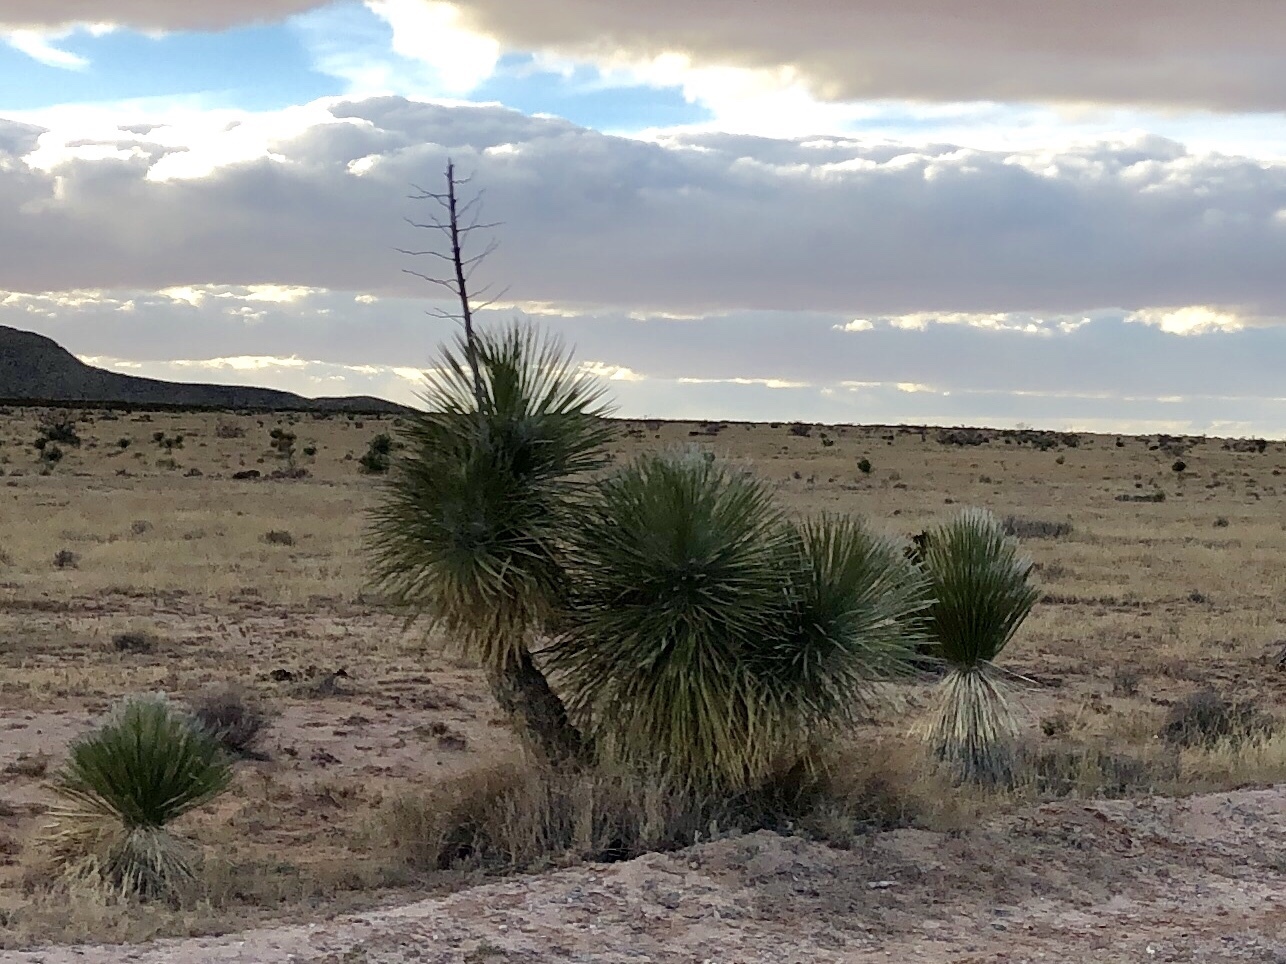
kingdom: Plantae
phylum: Tracheophyta
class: Liliopsida
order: Asparagales
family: Asparagaceae
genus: Yucca
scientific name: Yucca elata
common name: Palmella
